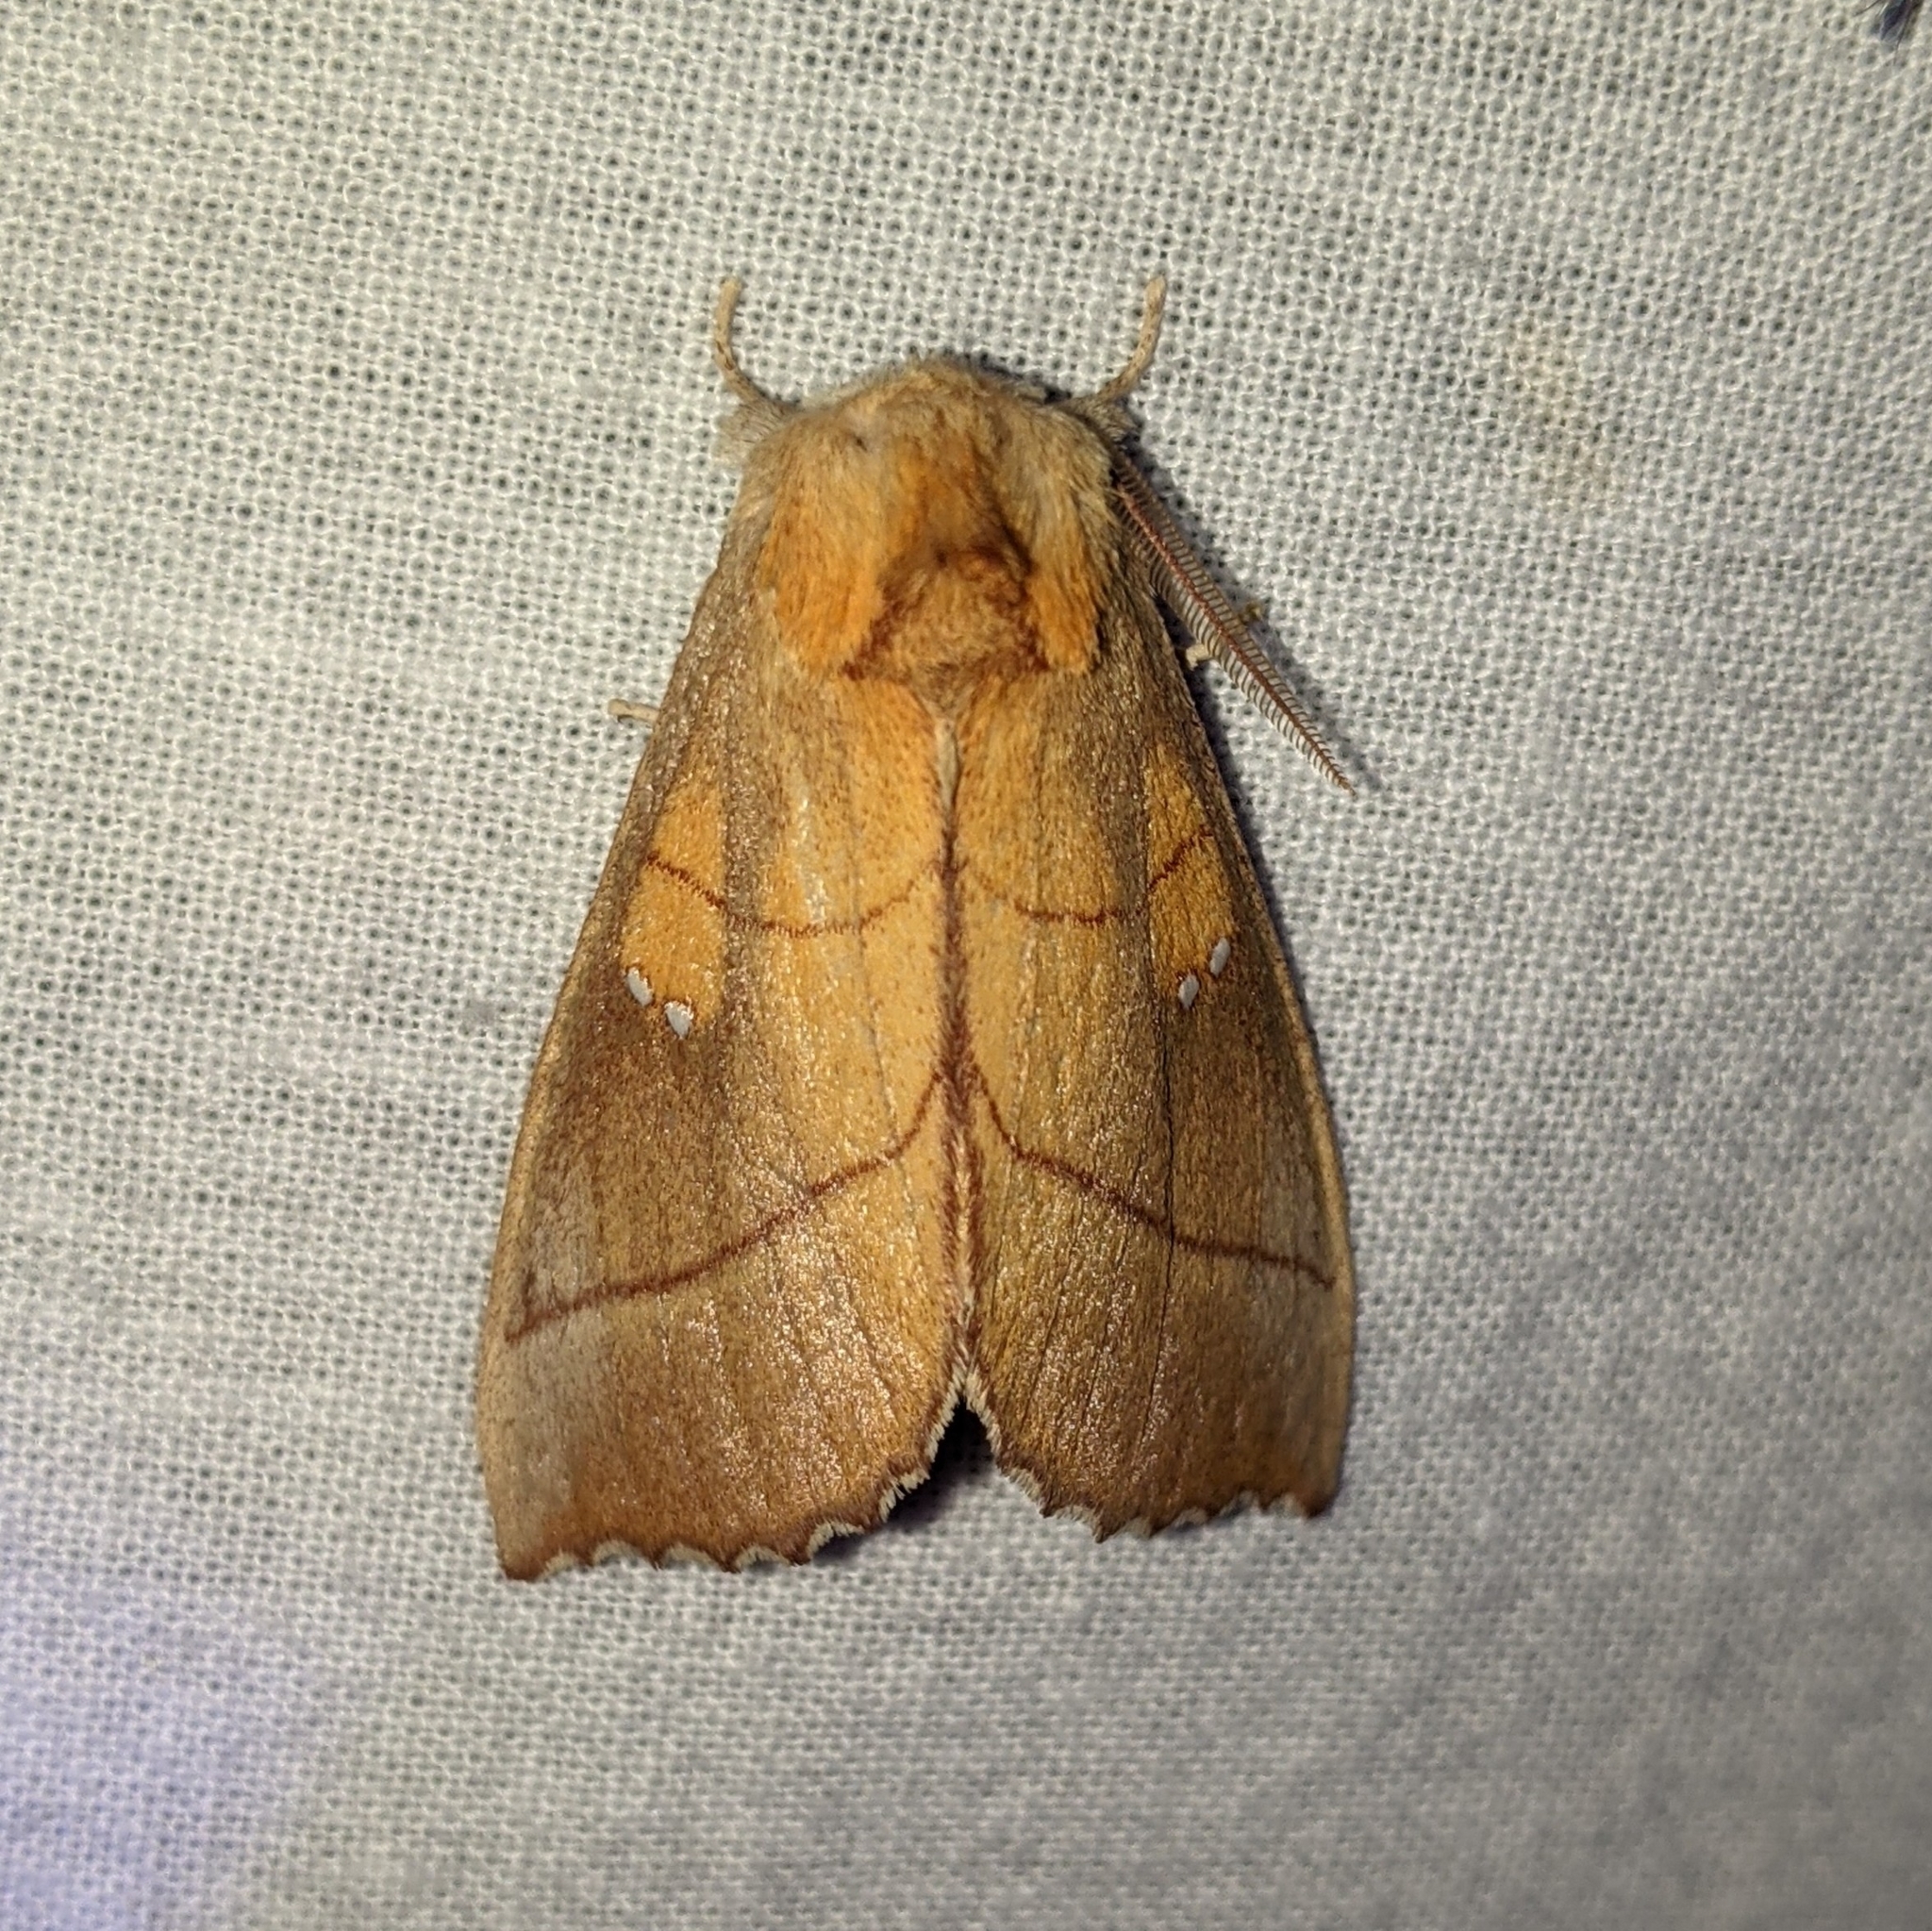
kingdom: Animalia
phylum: Arthropoda
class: Insecta
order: Lepidoptera
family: Notodontidae
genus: Nadata
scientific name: Nadata gibbosa
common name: White-dotted prominent
